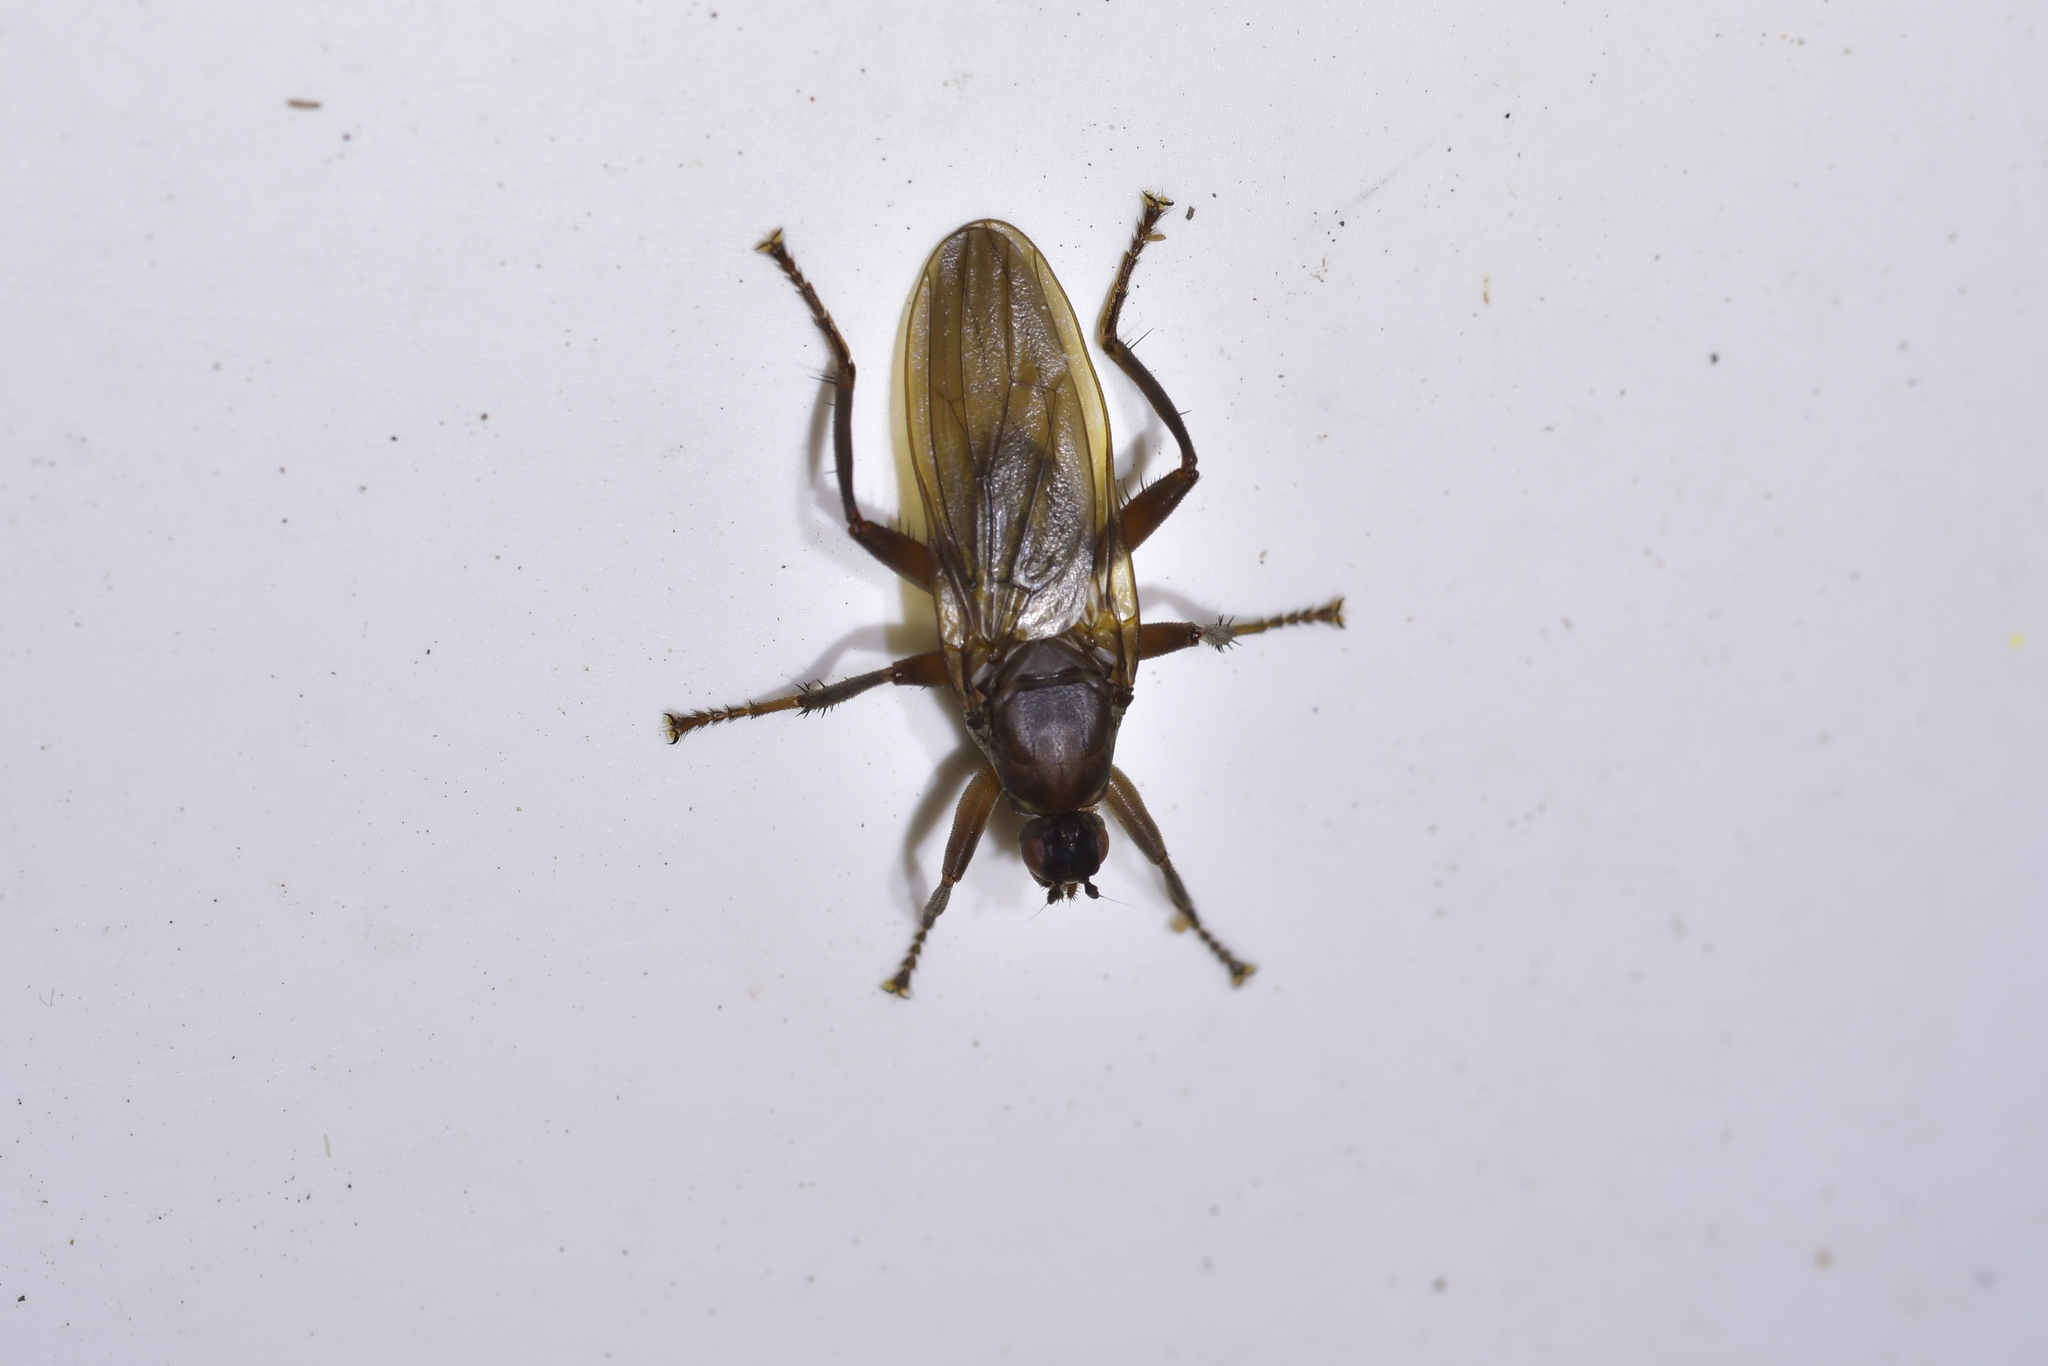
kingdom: Animalia
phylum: Arthropoda
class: Insecta
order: Diptera
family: Coelopidae
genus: Baeopterus
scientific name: Baeopterus philpotti
